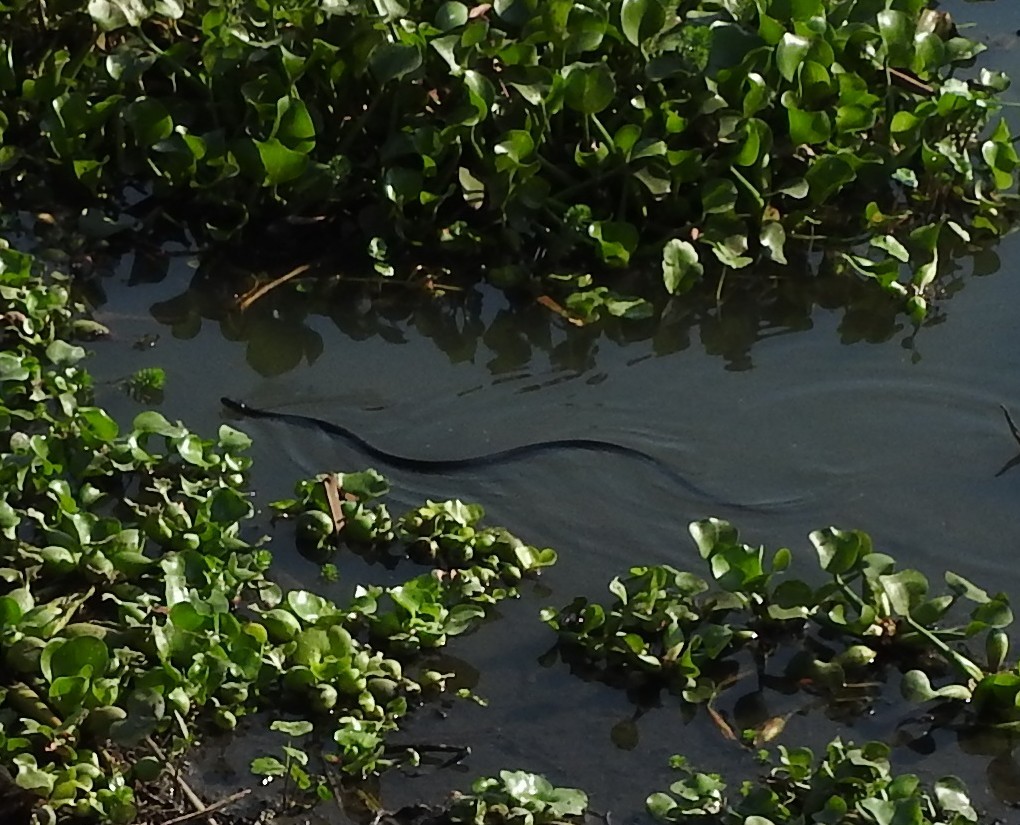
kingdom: Animalia
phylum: Chordata
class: Squamata
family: Colubridae
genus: Thamnophis
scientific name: Thamnophis melanogaster
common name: Blackbelly garter snake
